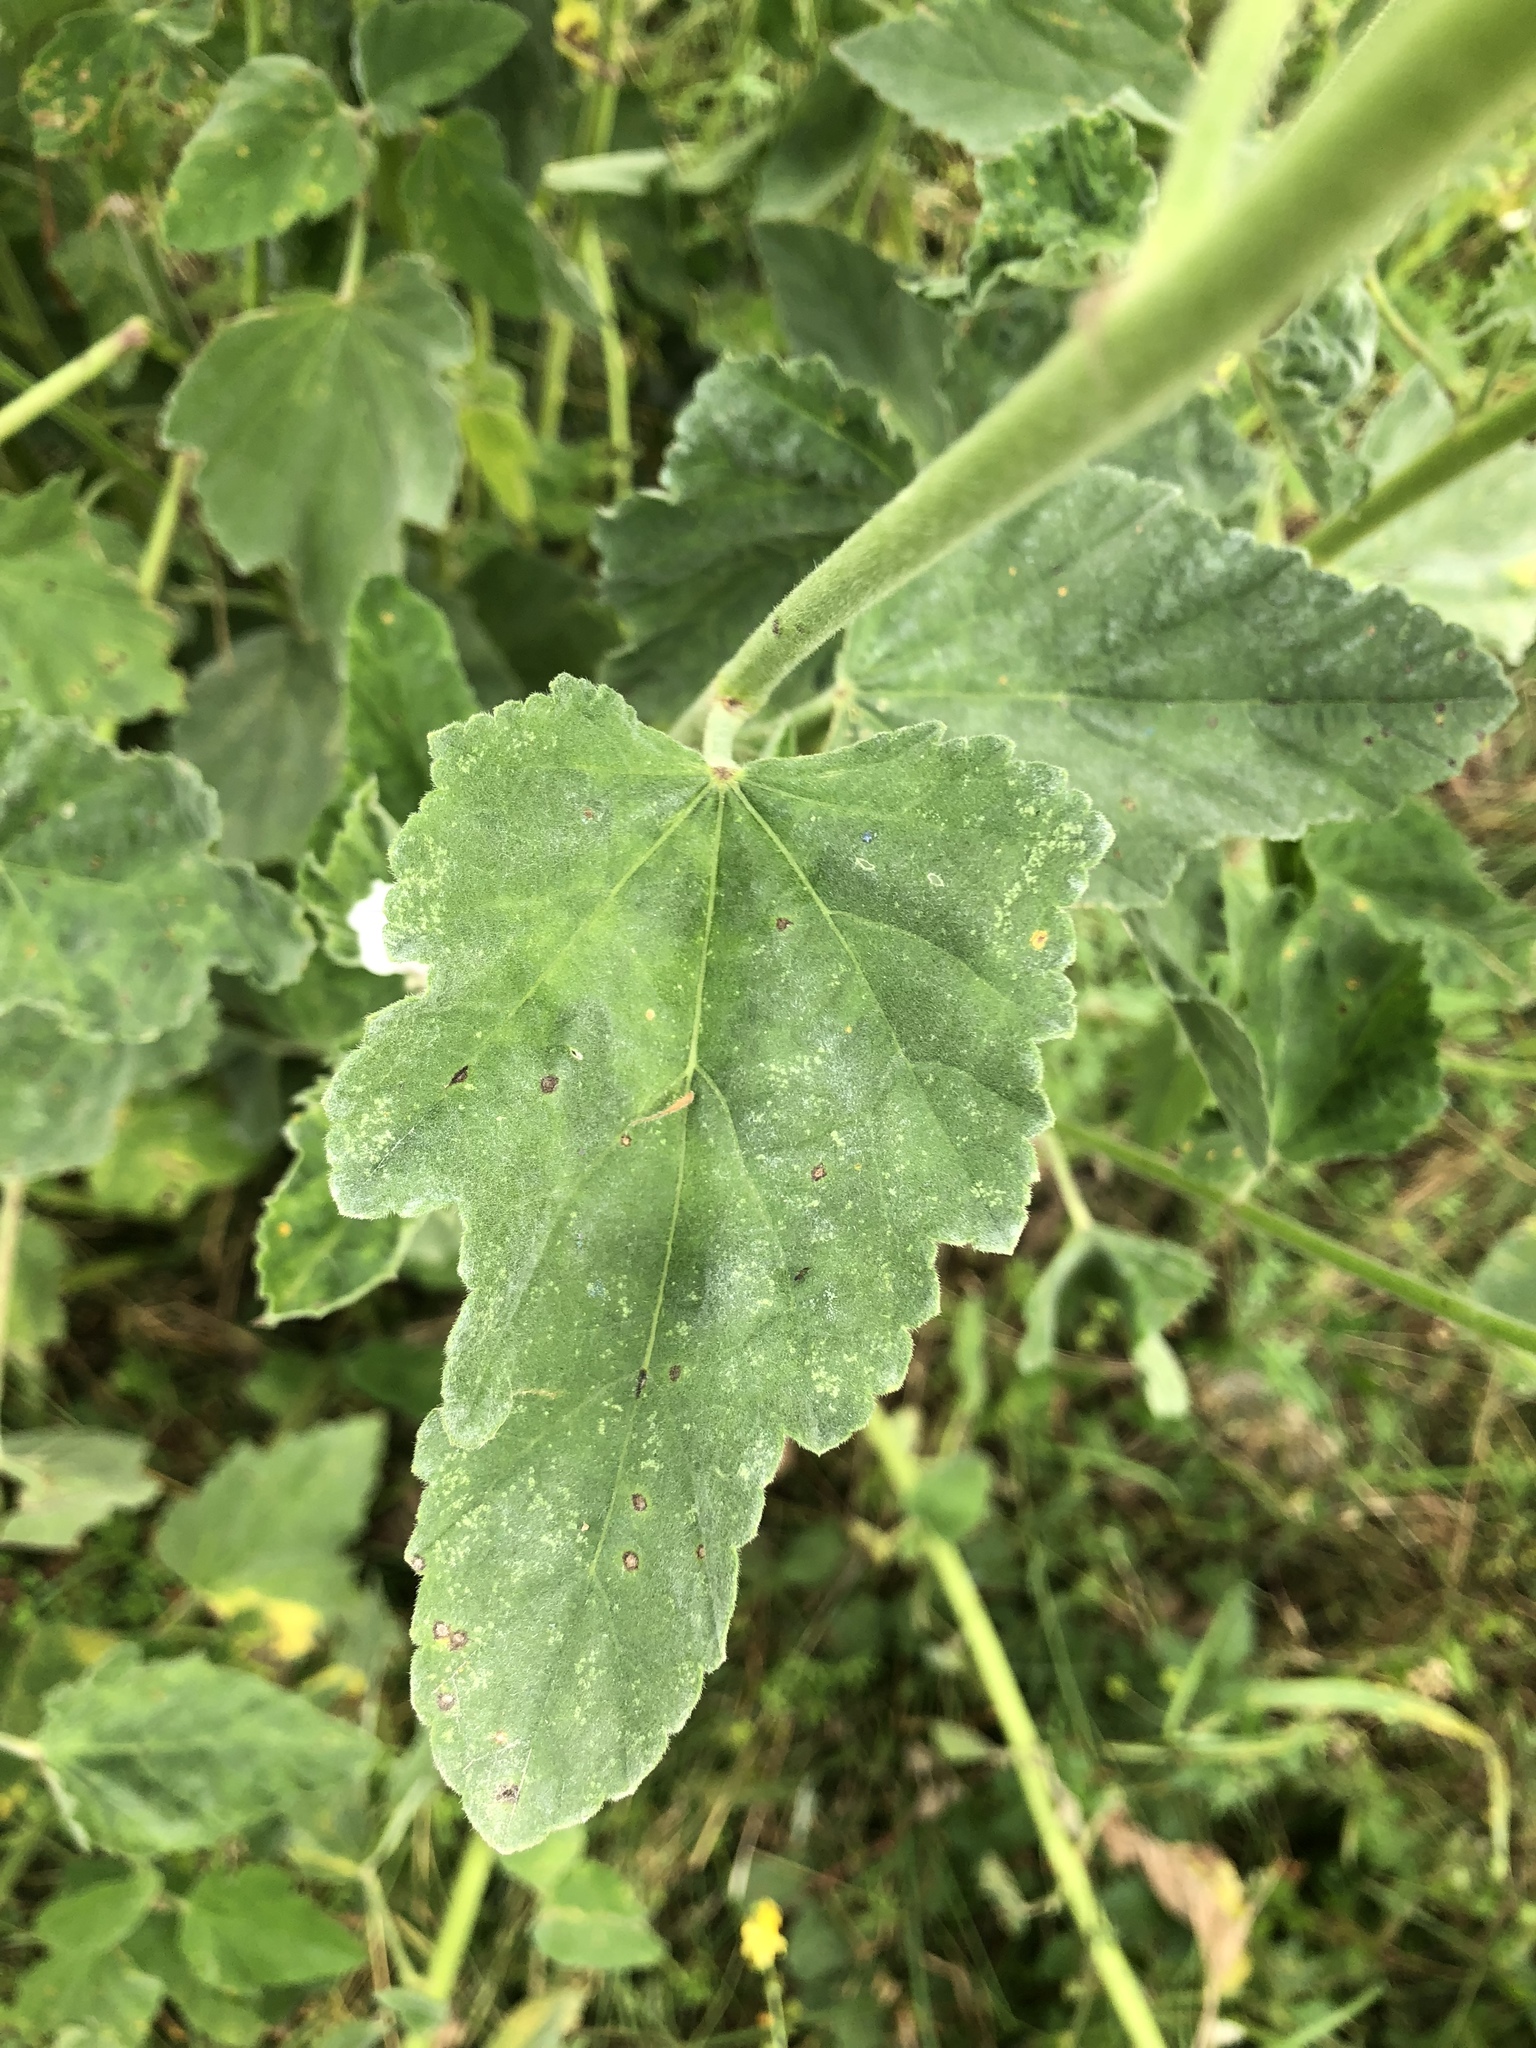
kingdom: Plantae
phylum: Tracheophyta
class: Magnoliopsida
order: Malvales
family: Malvaceae
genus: Althaea
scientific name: Althaea officinalis
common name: Marsh-mallow
